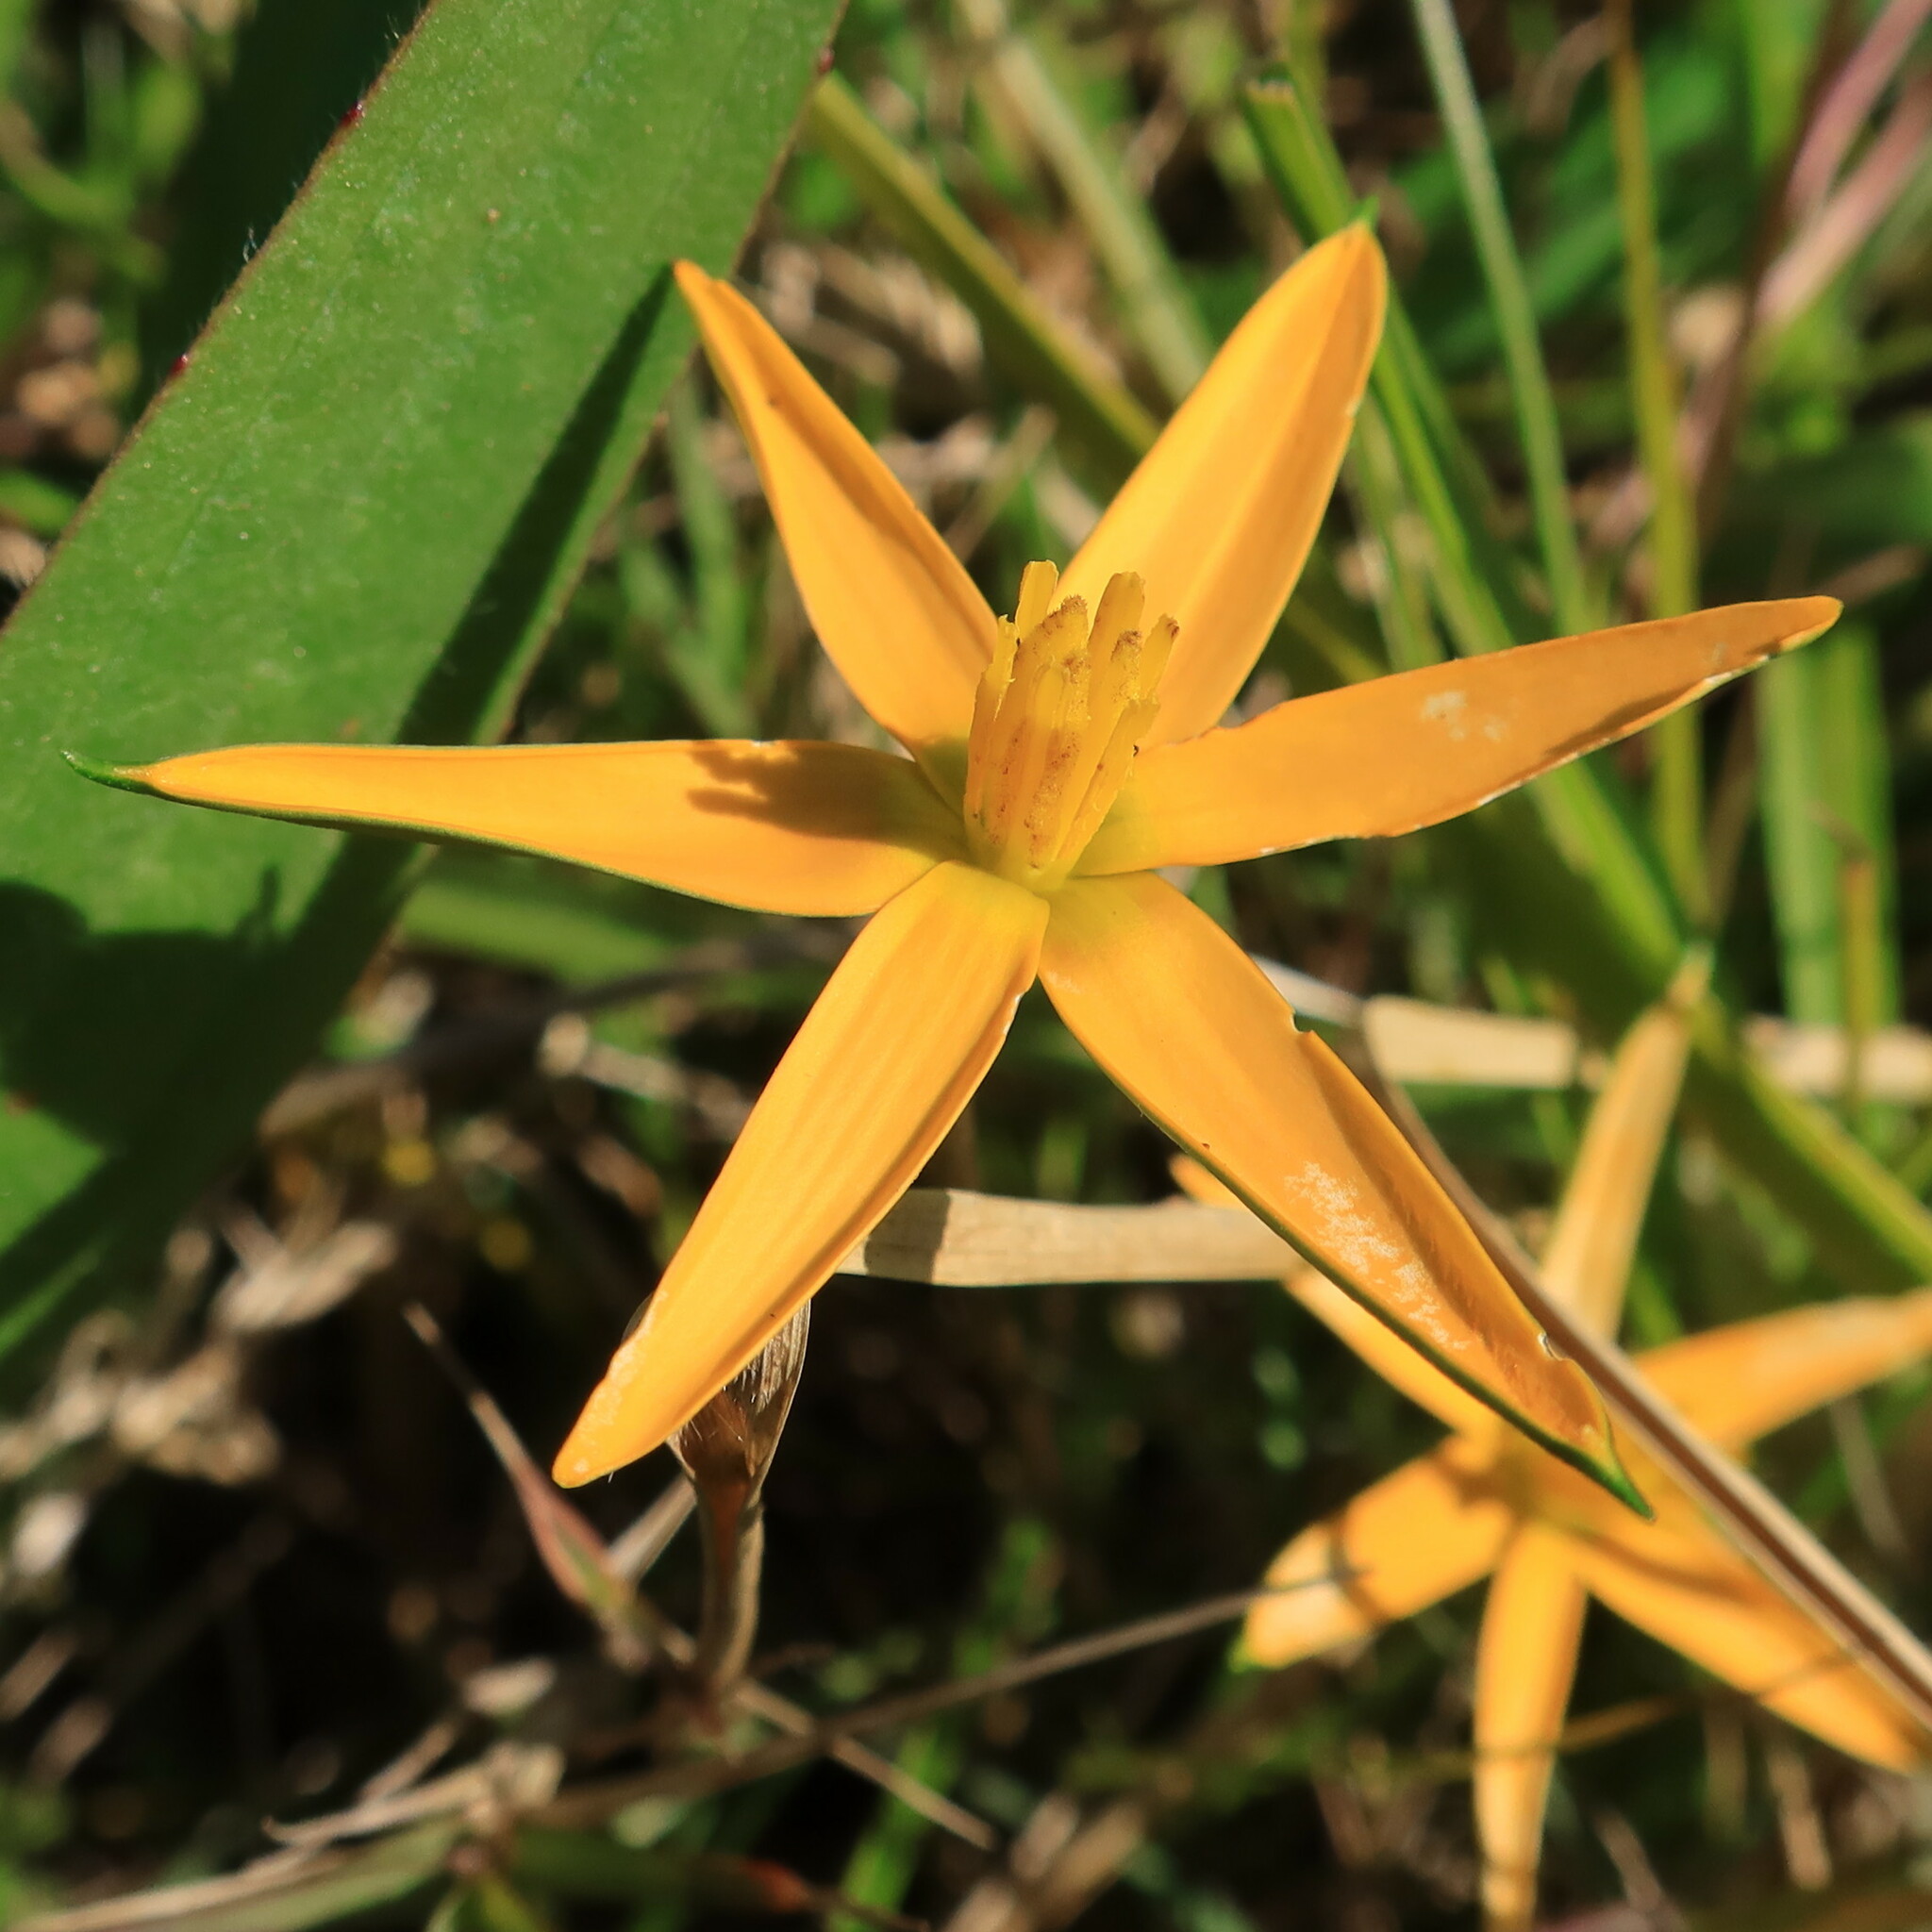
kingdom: Plantae
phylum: Tracheophyta
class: Liliopsida
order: Asparagales
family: Hypoxidaceae
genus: Pauridia
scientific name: Pauridia serrata
